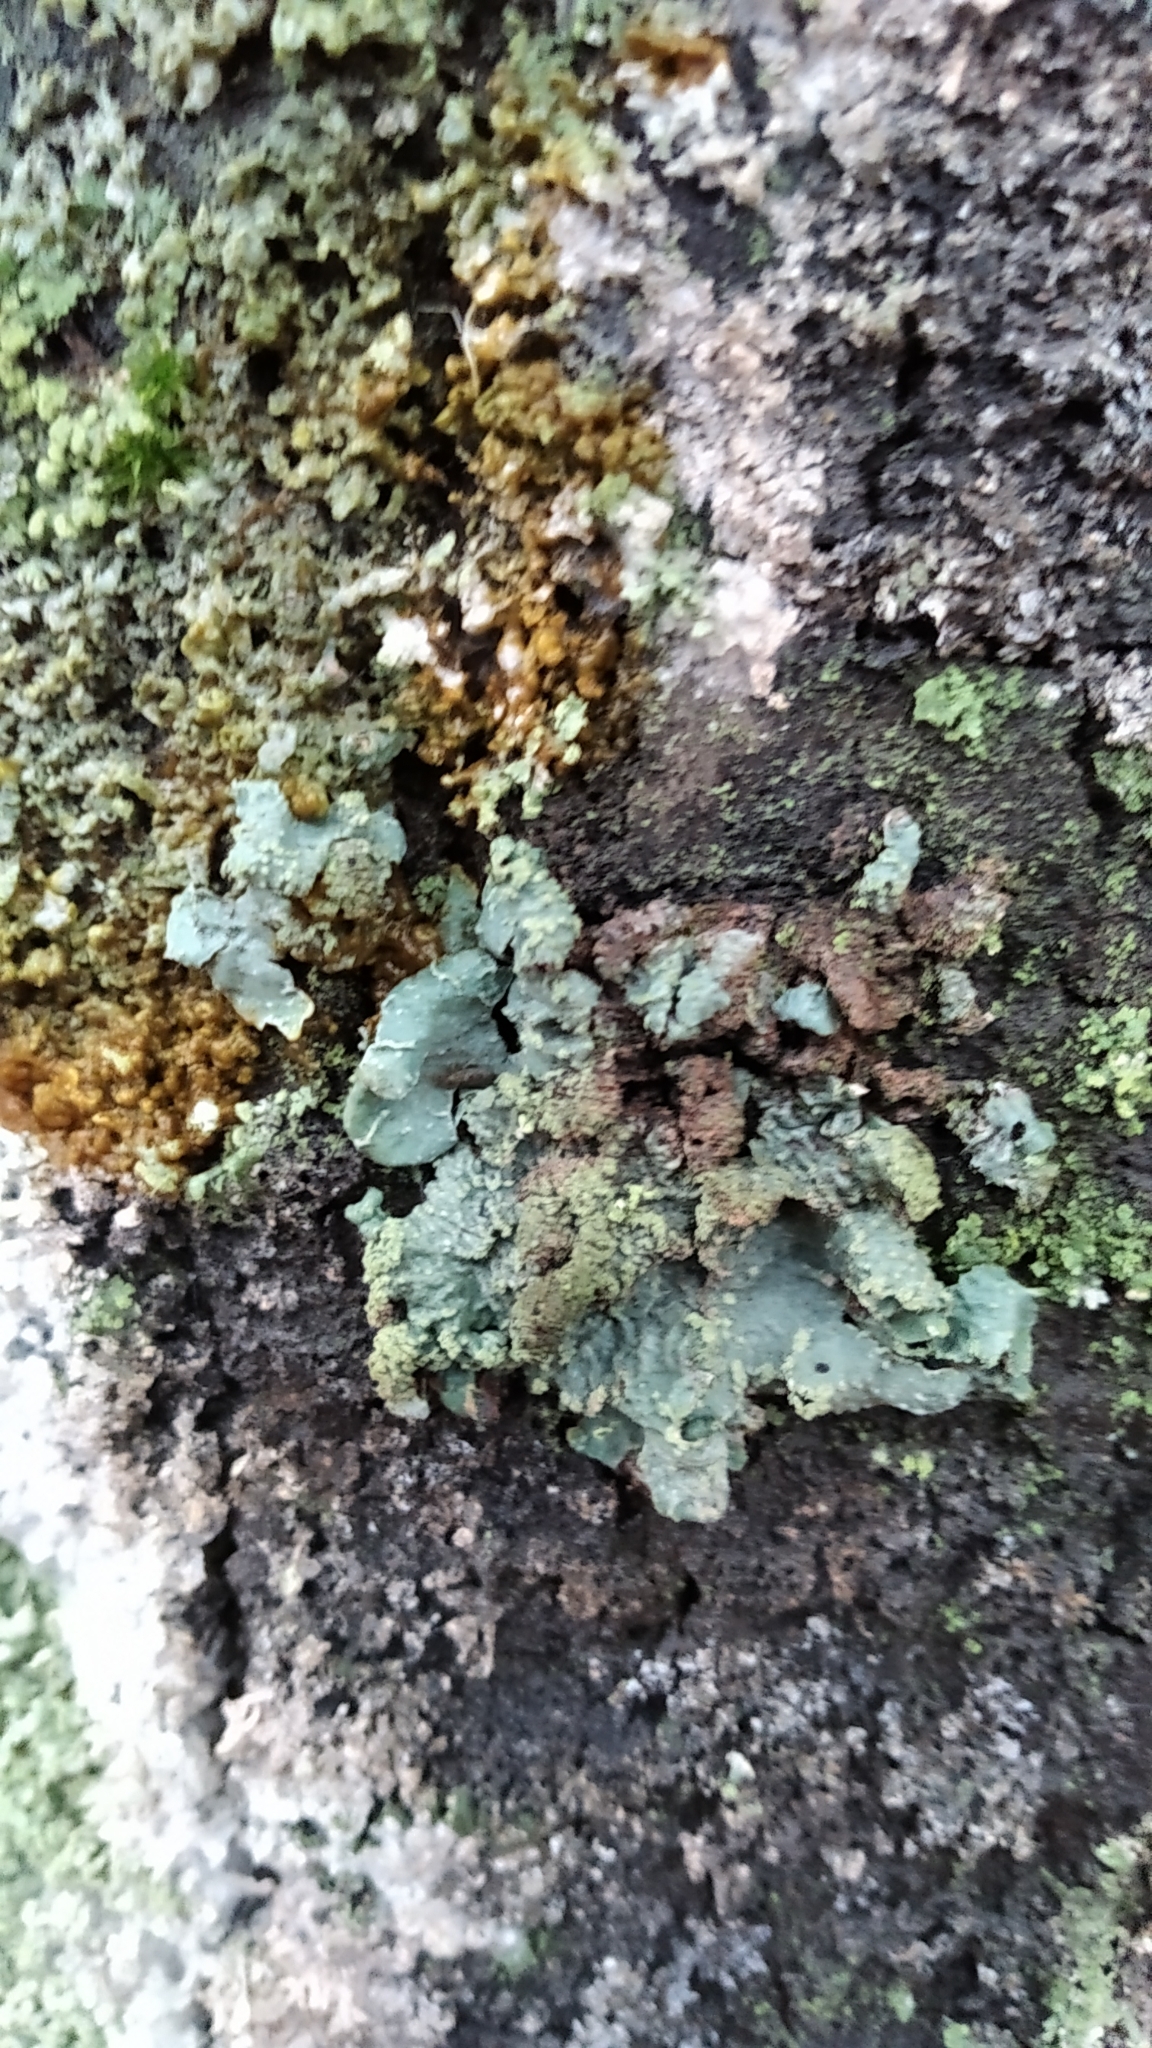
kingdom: Fungi
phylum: Ascomycota
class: Lecanoromycetes
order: Lecanorales
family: Parmeliaceae
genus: Parmelia
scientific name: Parmelia sulcata
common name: Netted shield lichen
